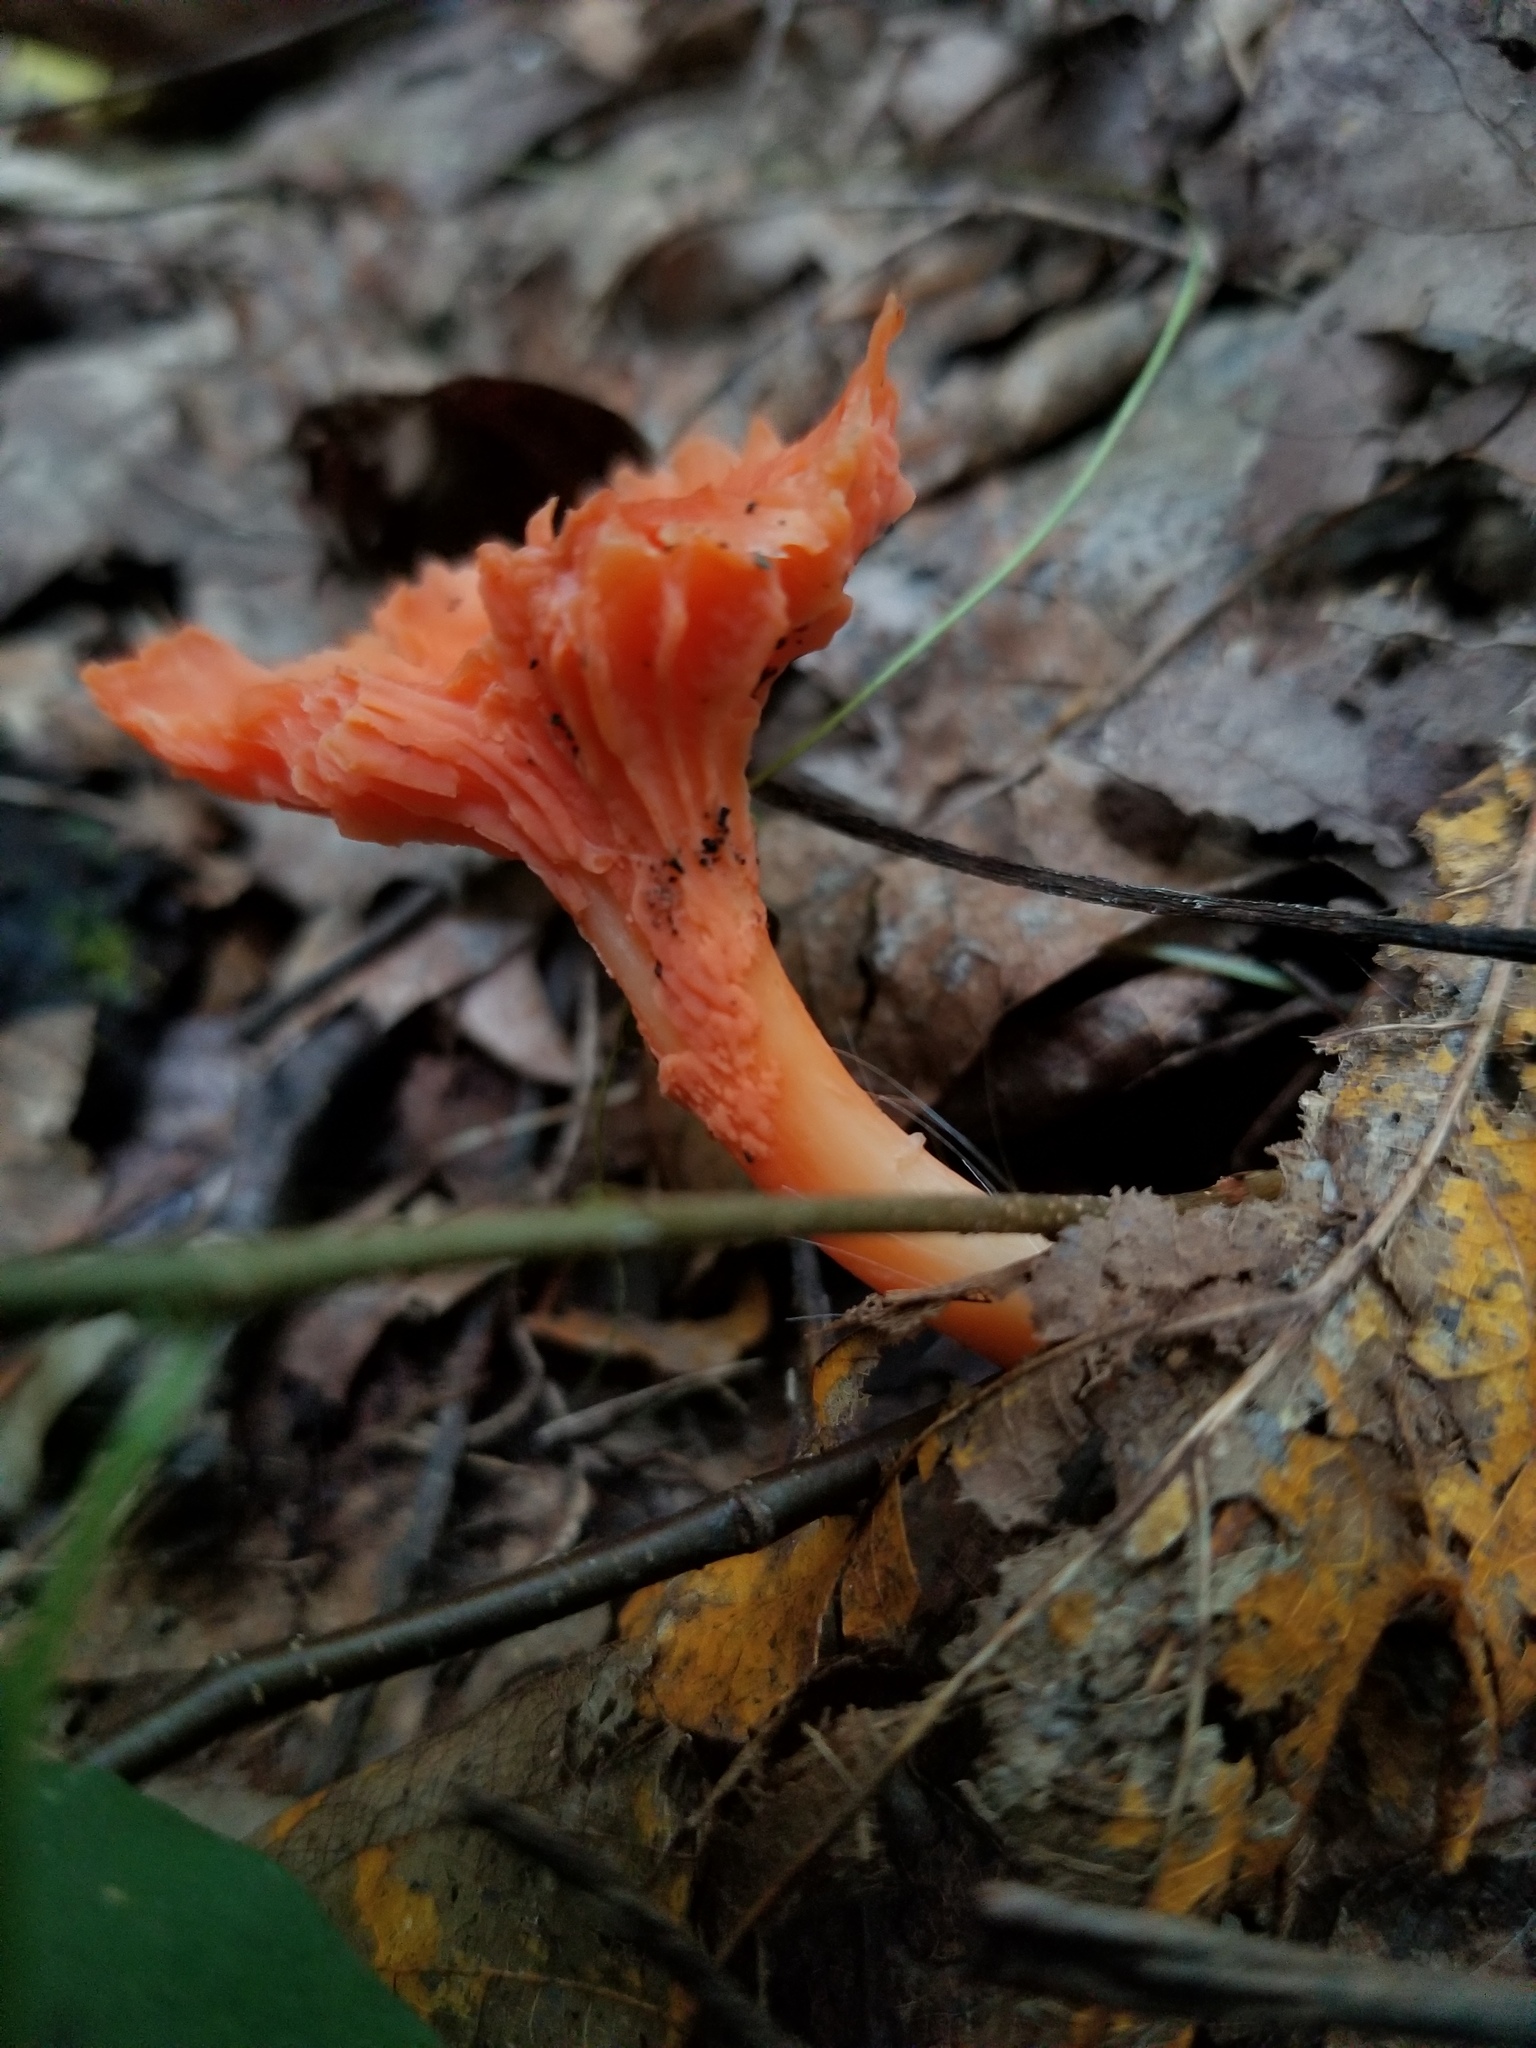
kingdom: Fungi
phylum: Basidiomycota
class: Agaricomycetes
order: Cantharellales
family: Hydnaceae
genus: Cantharellus
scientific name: Cantharellus cinnabarinus
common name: Cinnabar chanterelle
